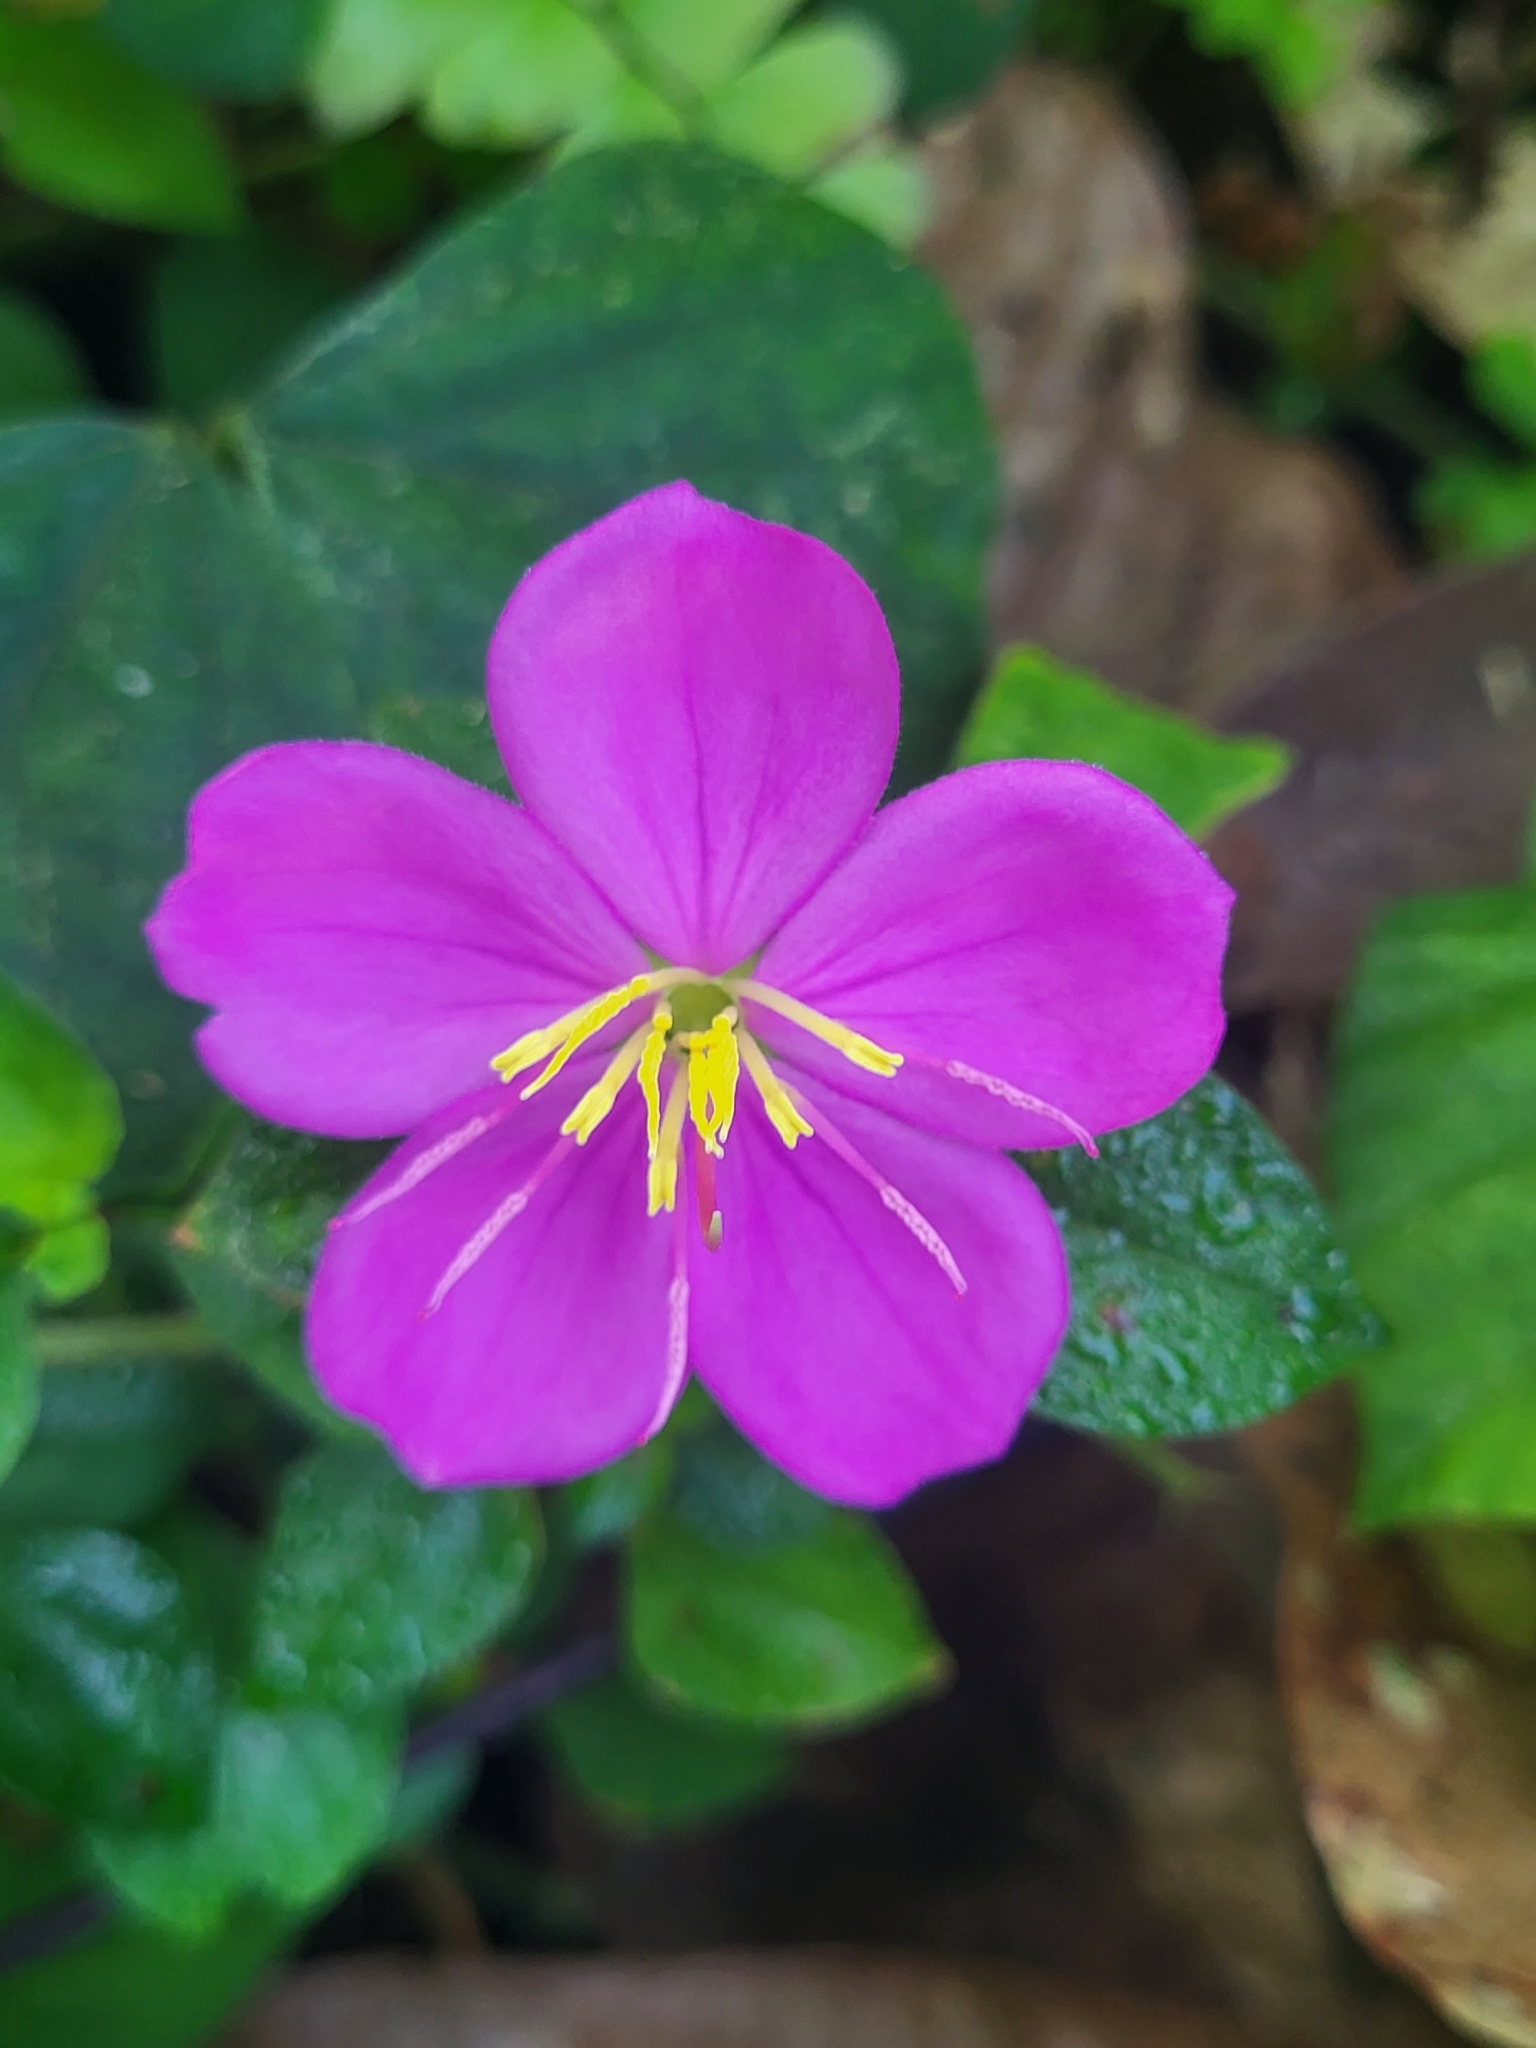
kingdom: Plantae
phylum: Tracheophyta
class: Magnoliopsida
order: Myrtales
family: Melastomataceae
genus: Heterotis
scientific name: Heterotis rotundifolia
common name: Pinklady
